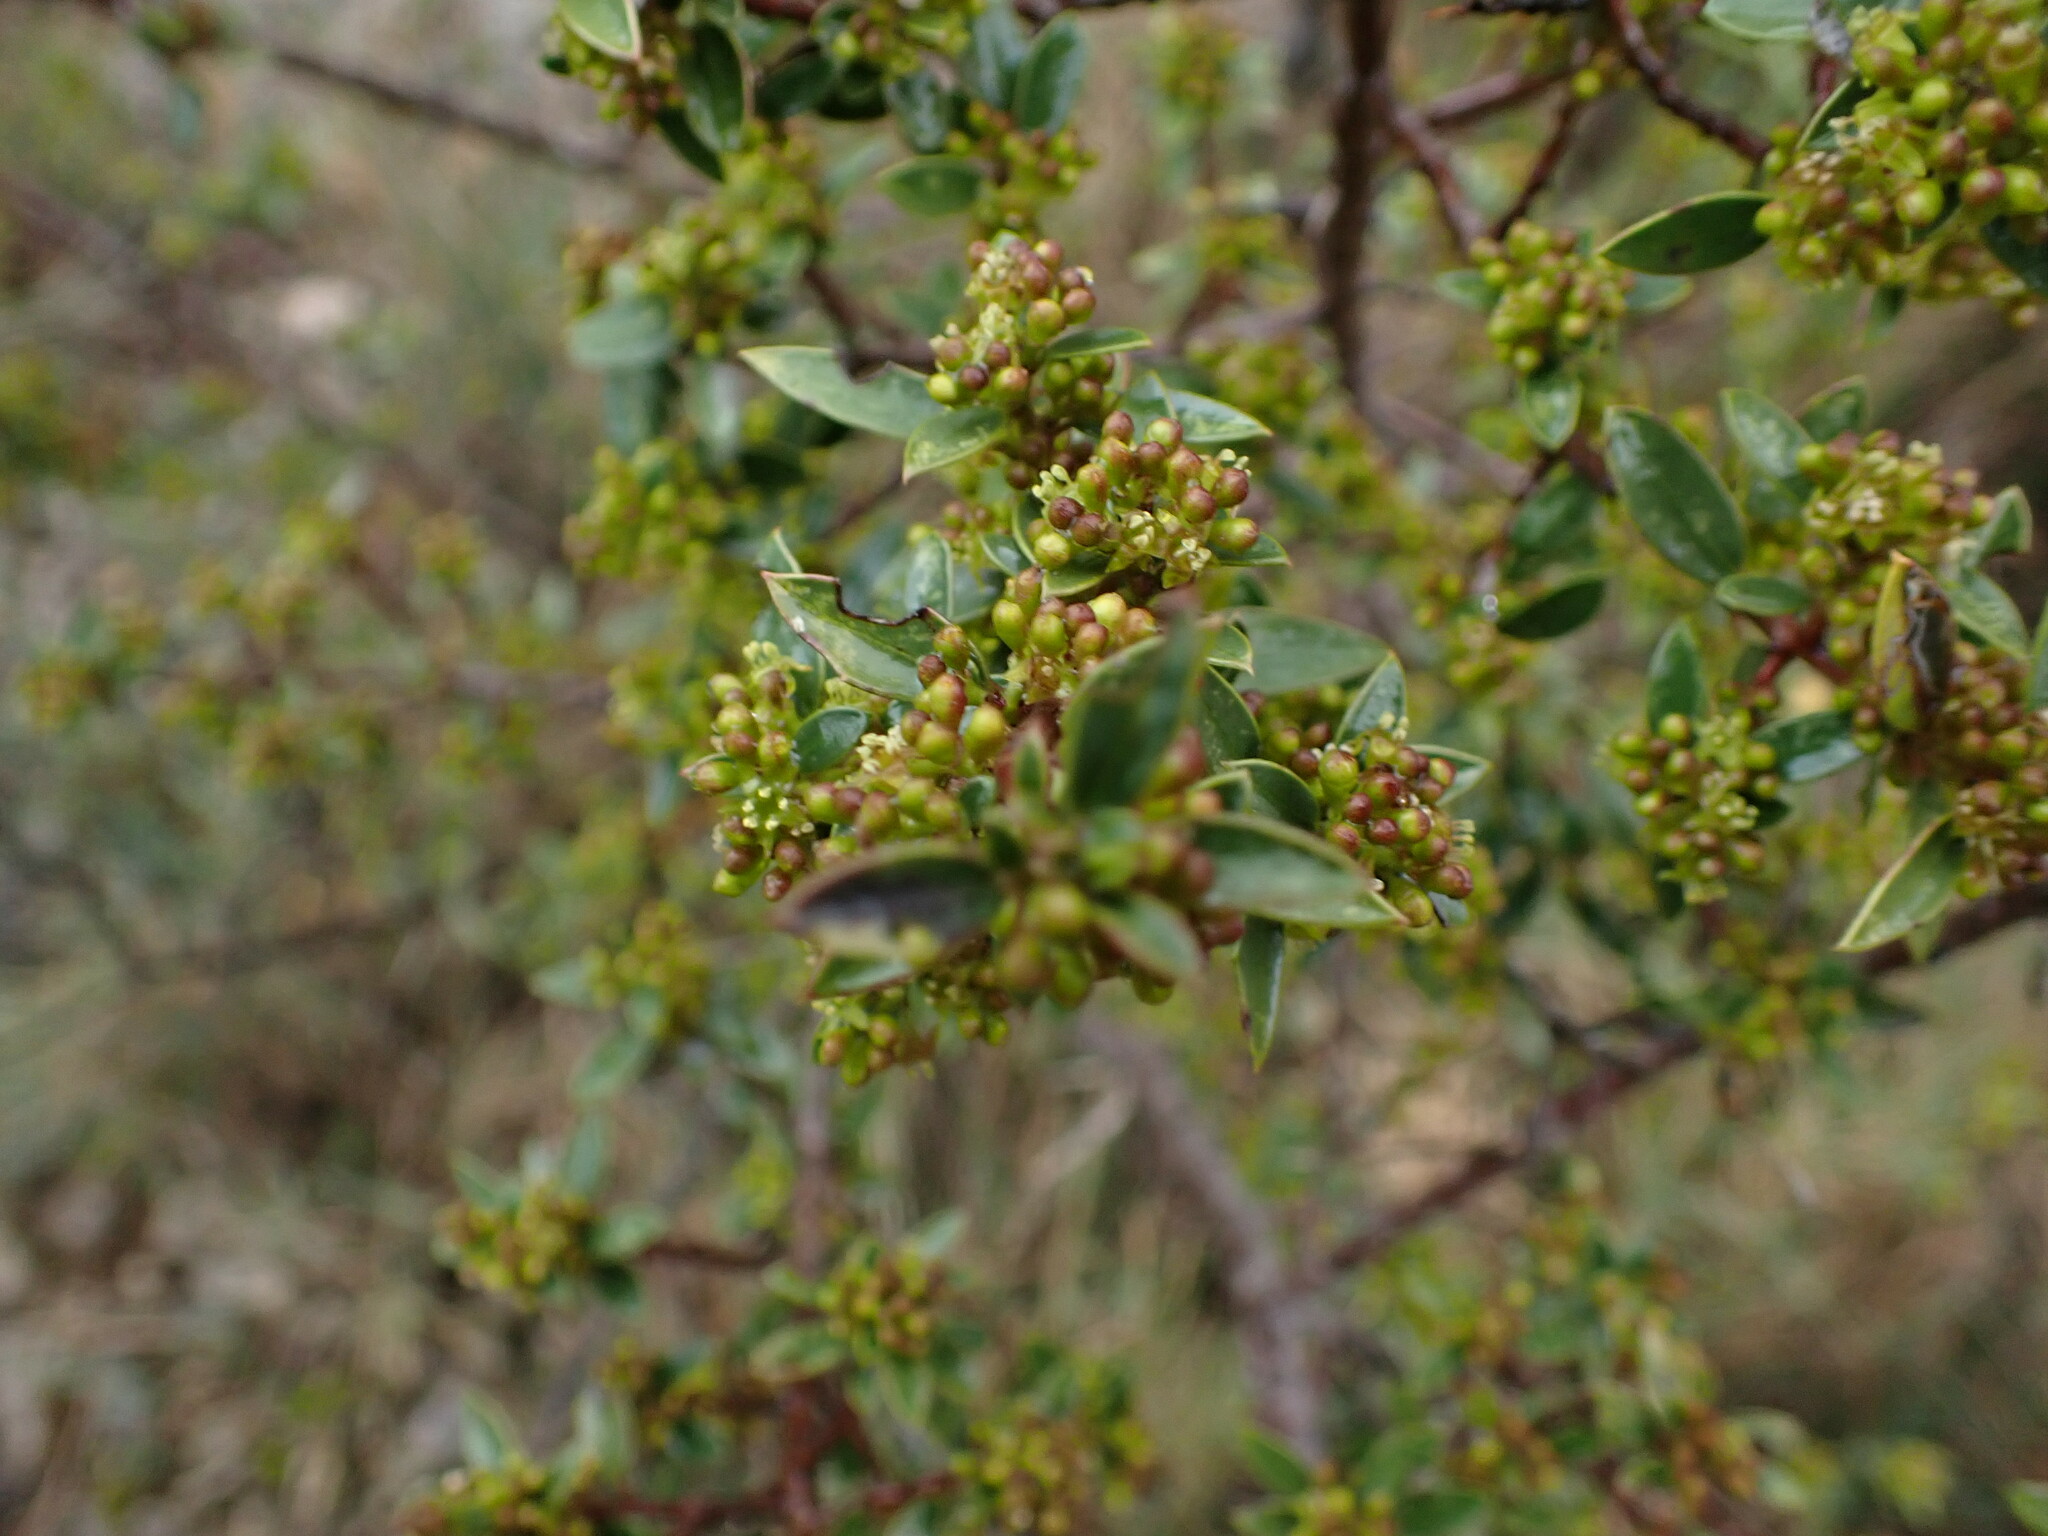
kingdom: Plantae
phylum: Tracheophyta
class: Magnoliopsida
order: Rosales
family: Rhamnaceae
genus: Rhamnus
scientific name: Rhamnus alaternus
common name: Mediterranean buckthorn
